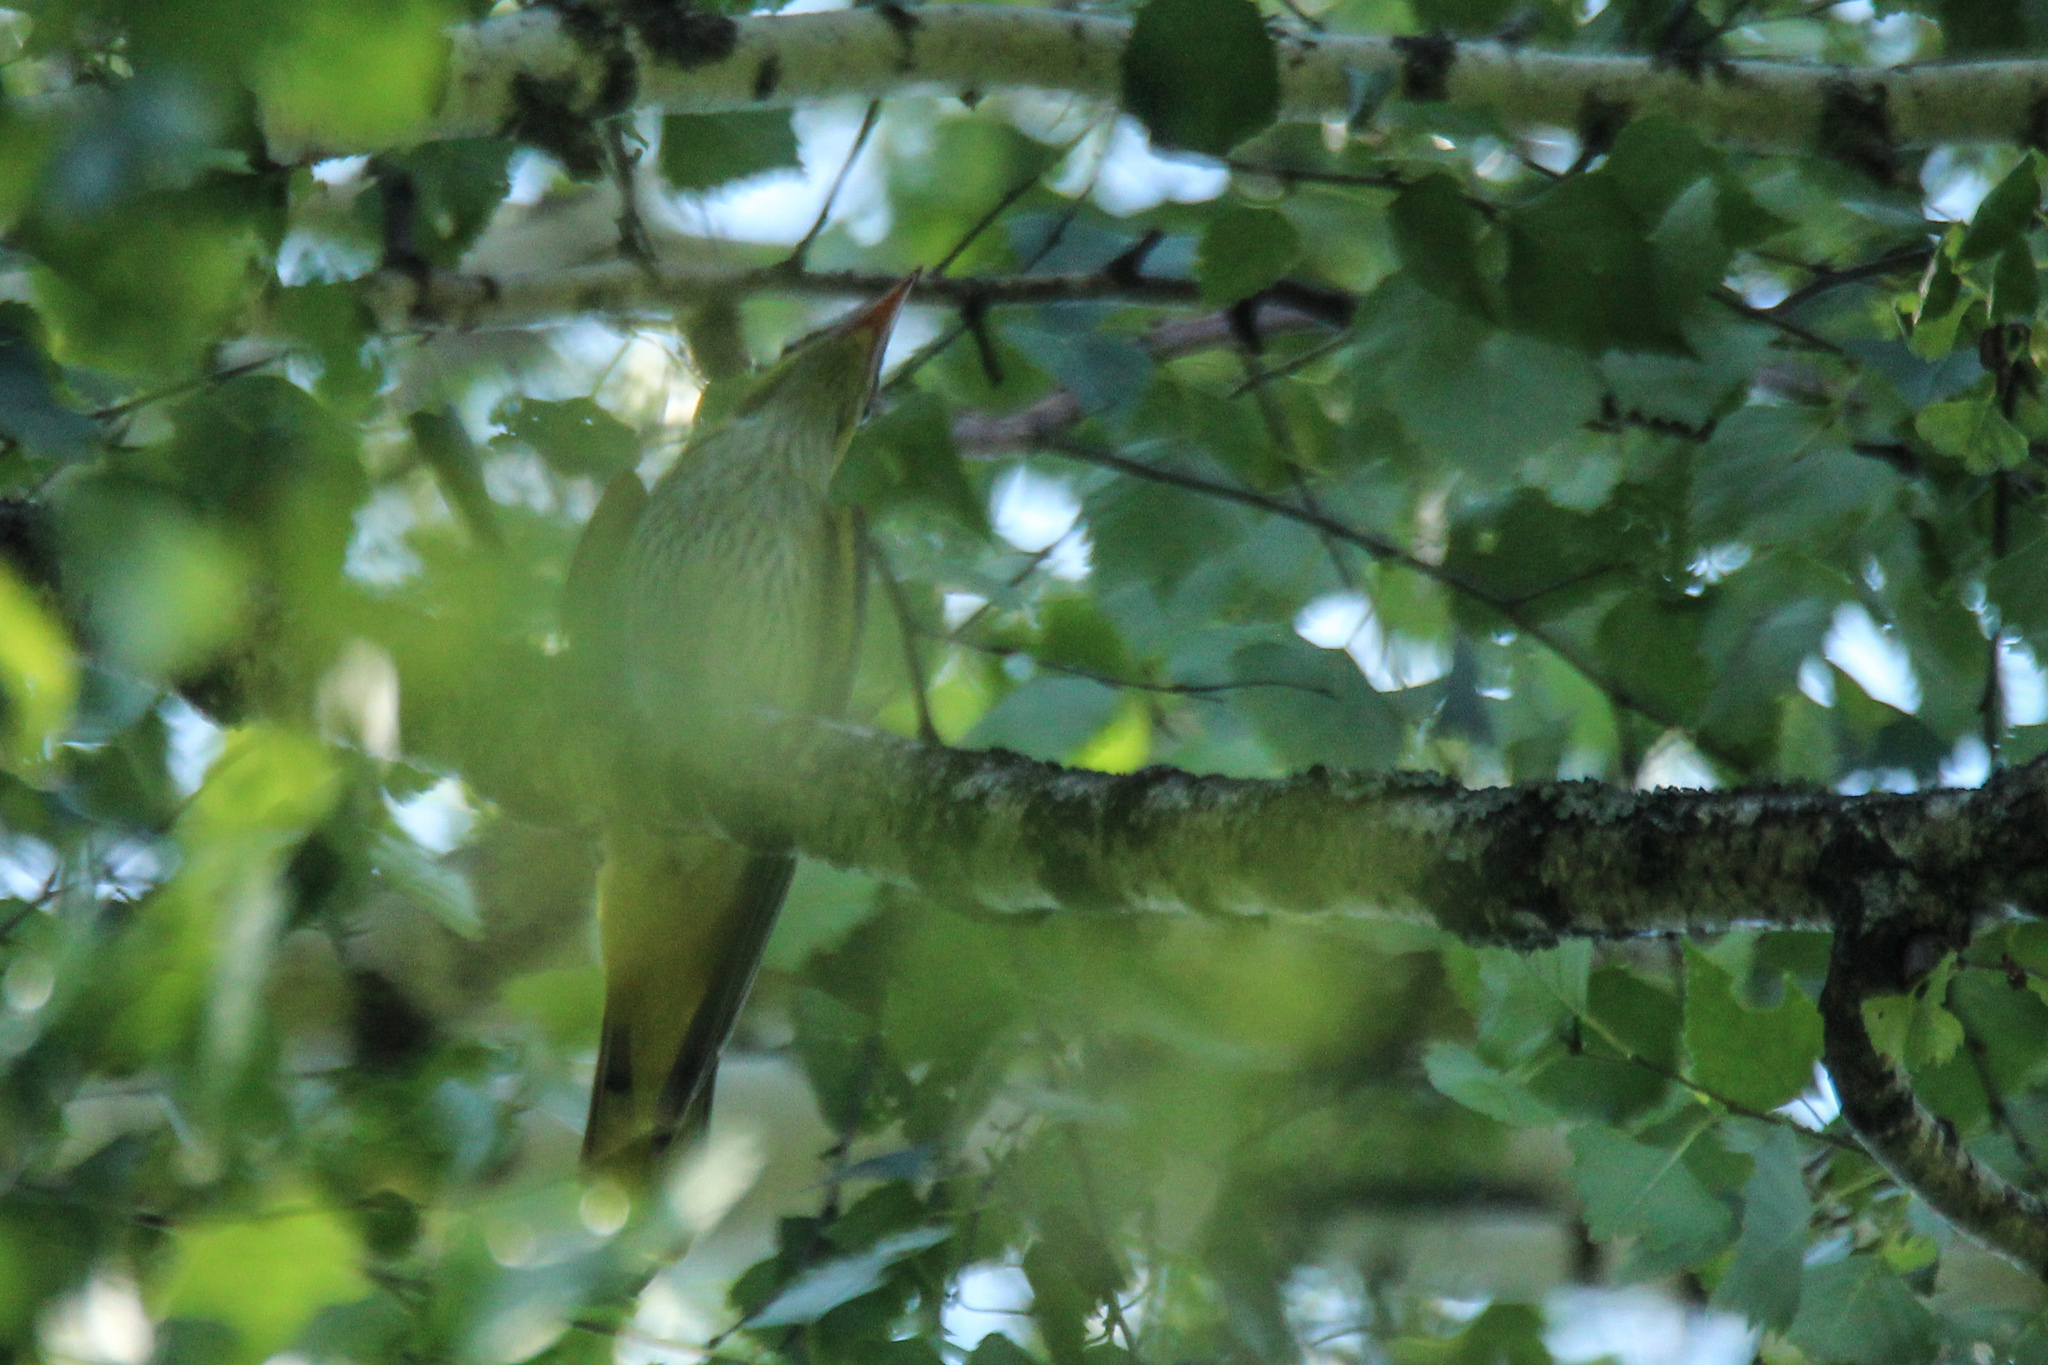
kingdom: Animalia
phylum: Chordata
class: Aves
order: Passeriformes
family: Oriolidae
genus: Oriolus
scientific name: Oriolus oriolus
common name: Eurasian golden oriole
